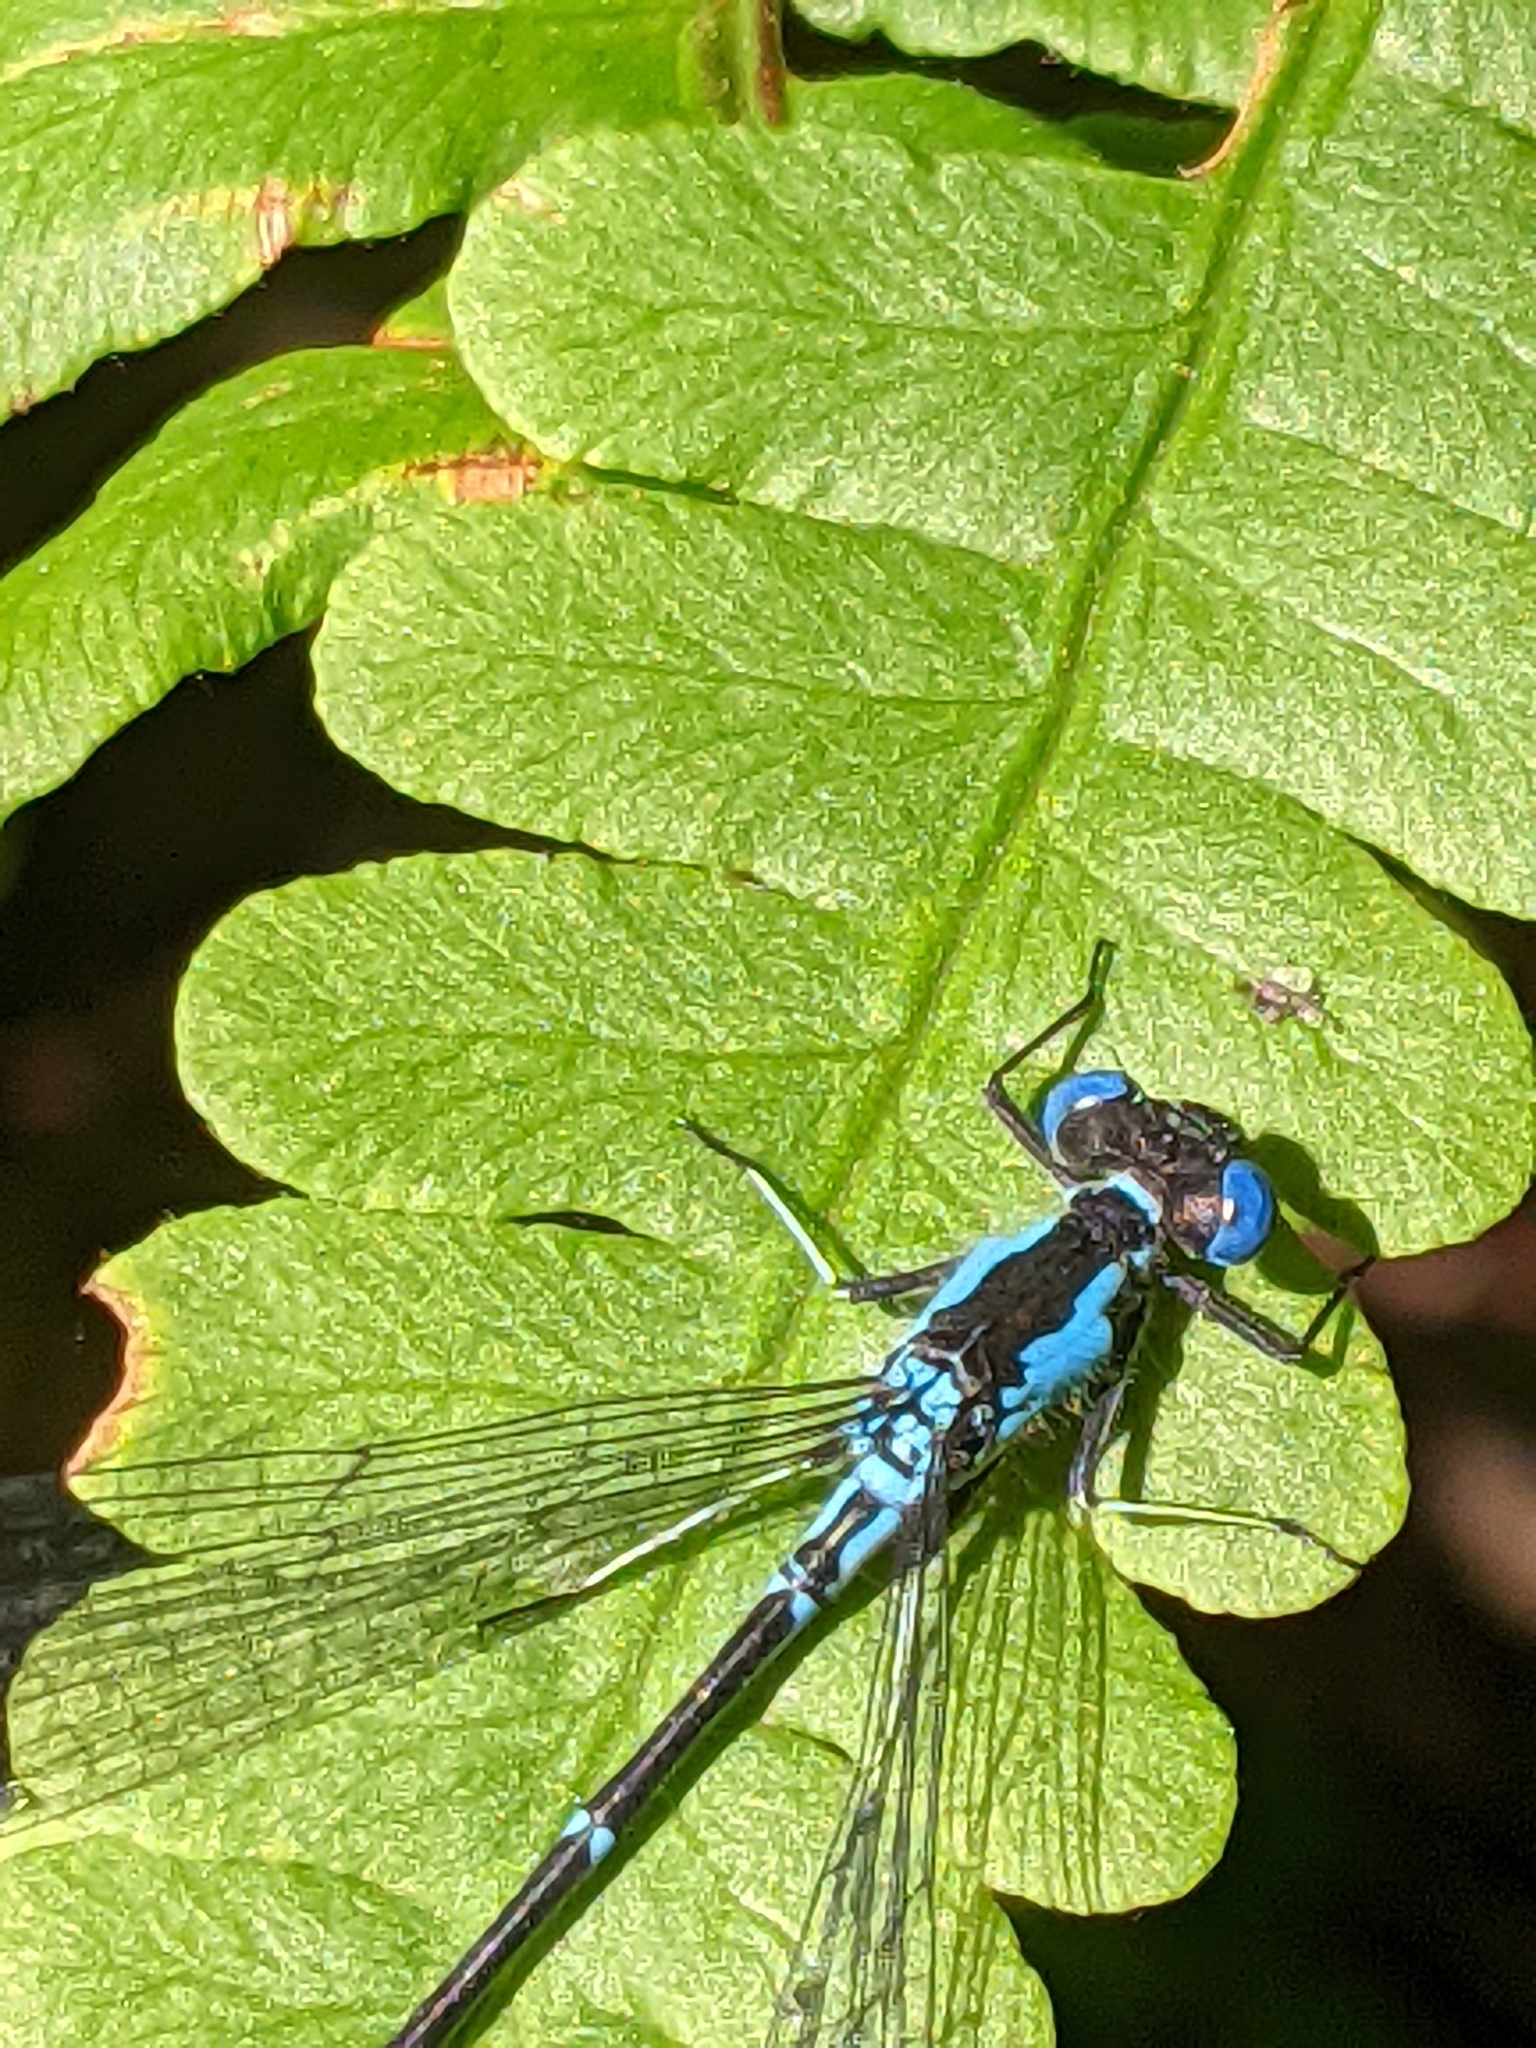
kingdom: Animalia
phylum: Arthropoda
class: Insecta
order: Odonata
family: Coenagrionidae
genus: Chromagrion
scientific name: Chromagrion conditum
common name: Aurora damsel
